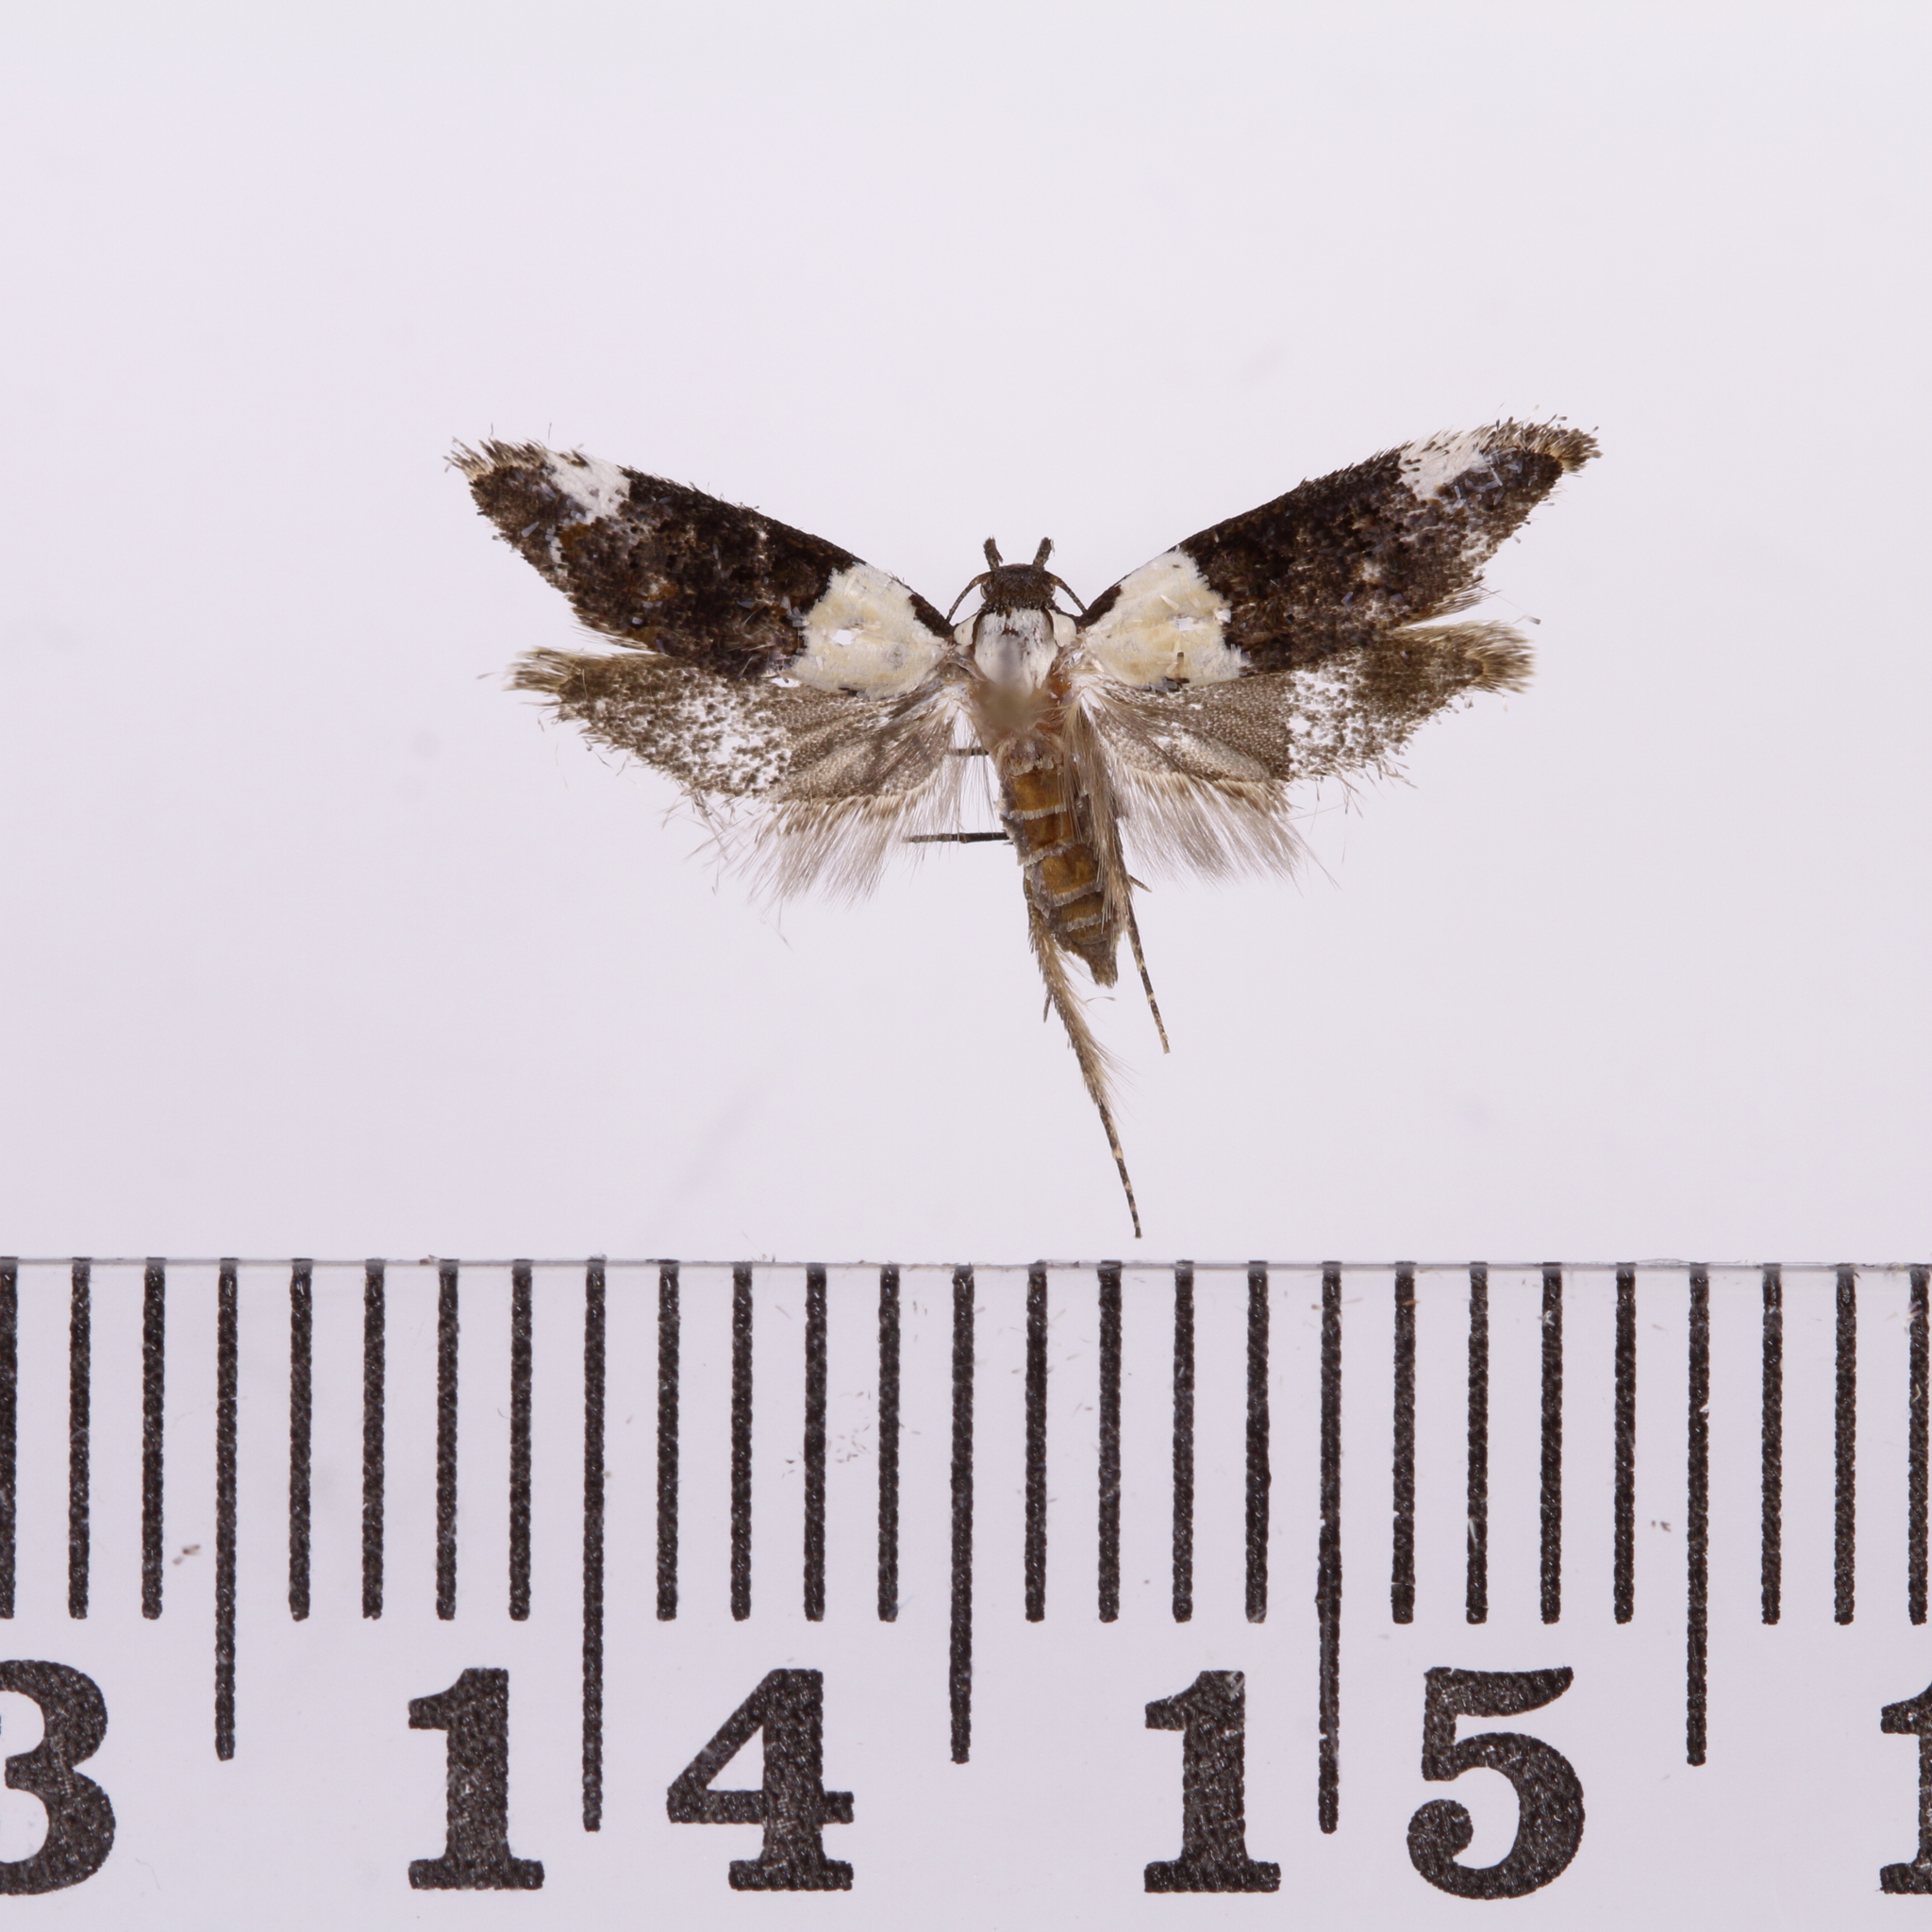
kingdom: Animalia
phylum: Arthropoda
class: Insecta
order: Lepidoptera
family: Oecophoridae
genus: Trachypepla
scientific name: Trachypepla euryleucota
